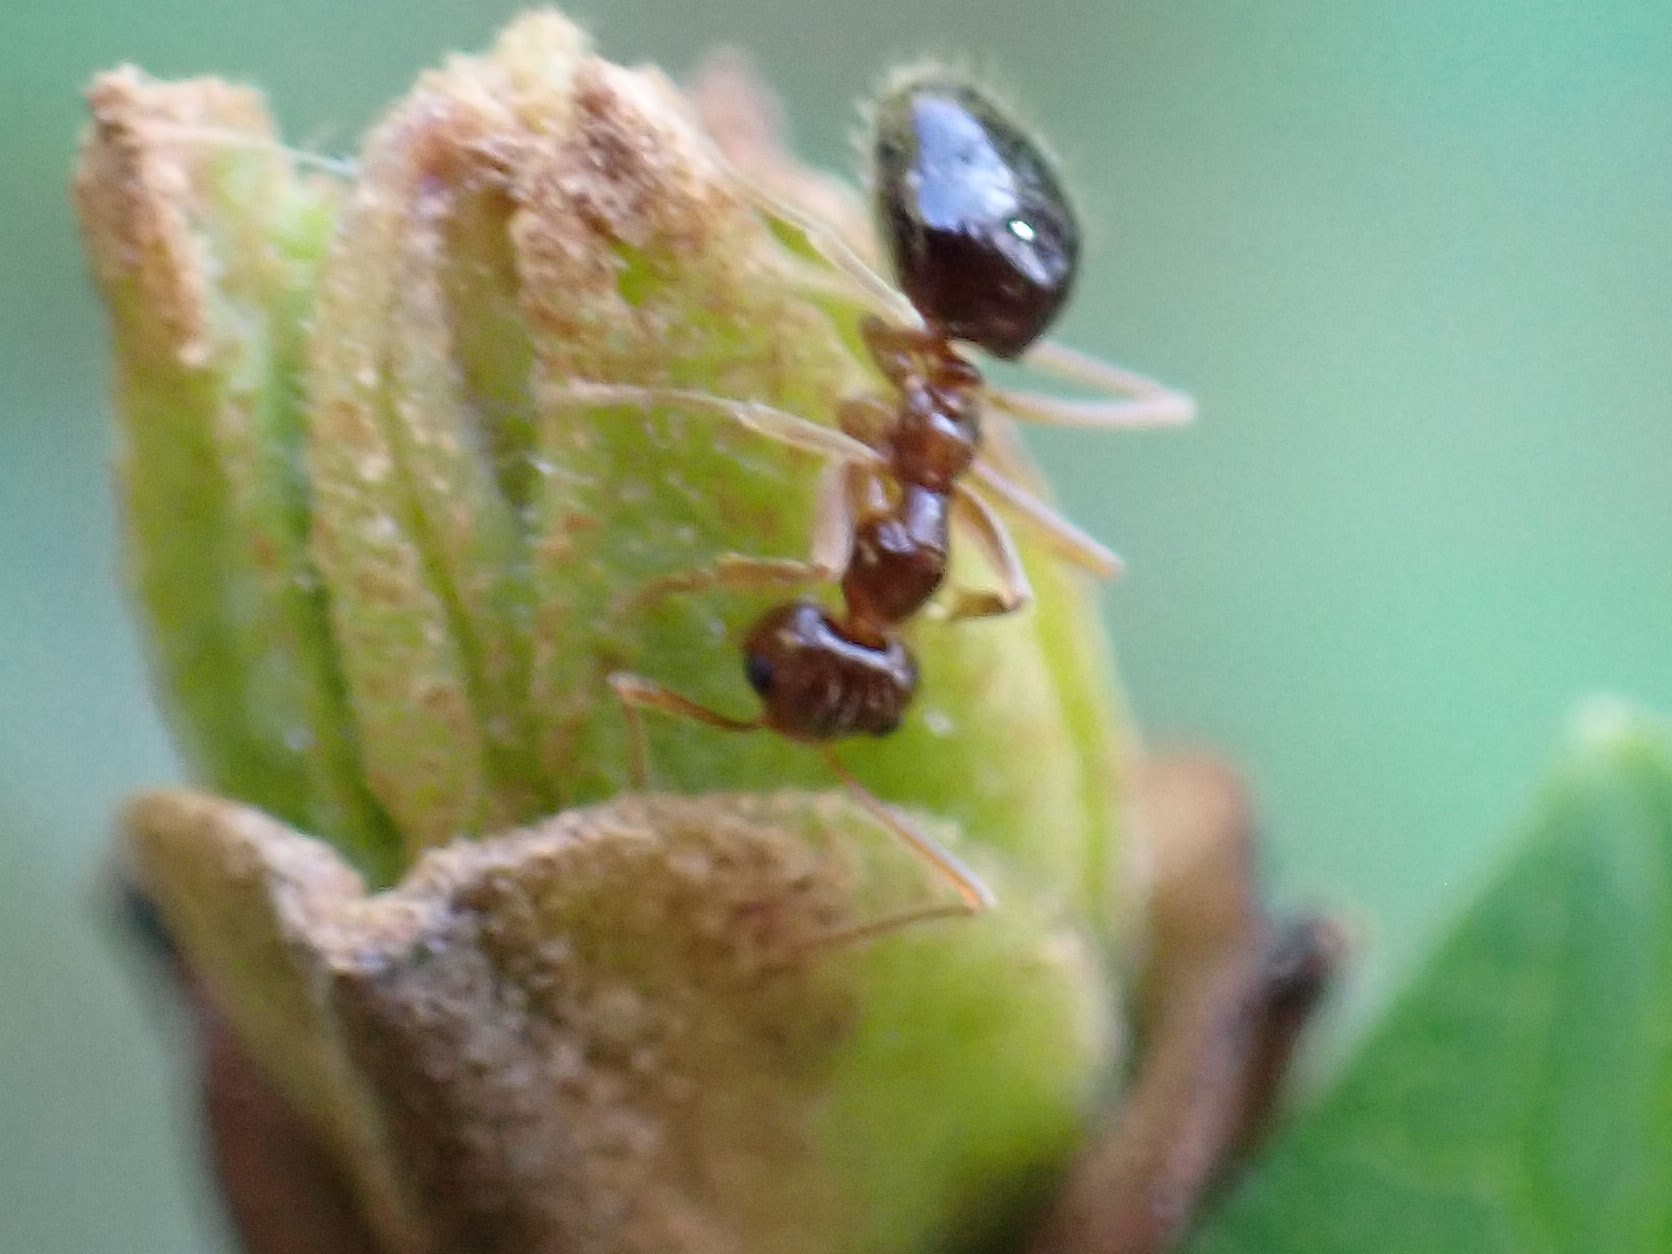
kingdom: Animalia
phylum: Arthropoda
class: Insecta
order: Hymenoptera
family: Formicidae
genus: Prenolepis
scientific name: Prenolepis imparis
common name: Small honey ant
